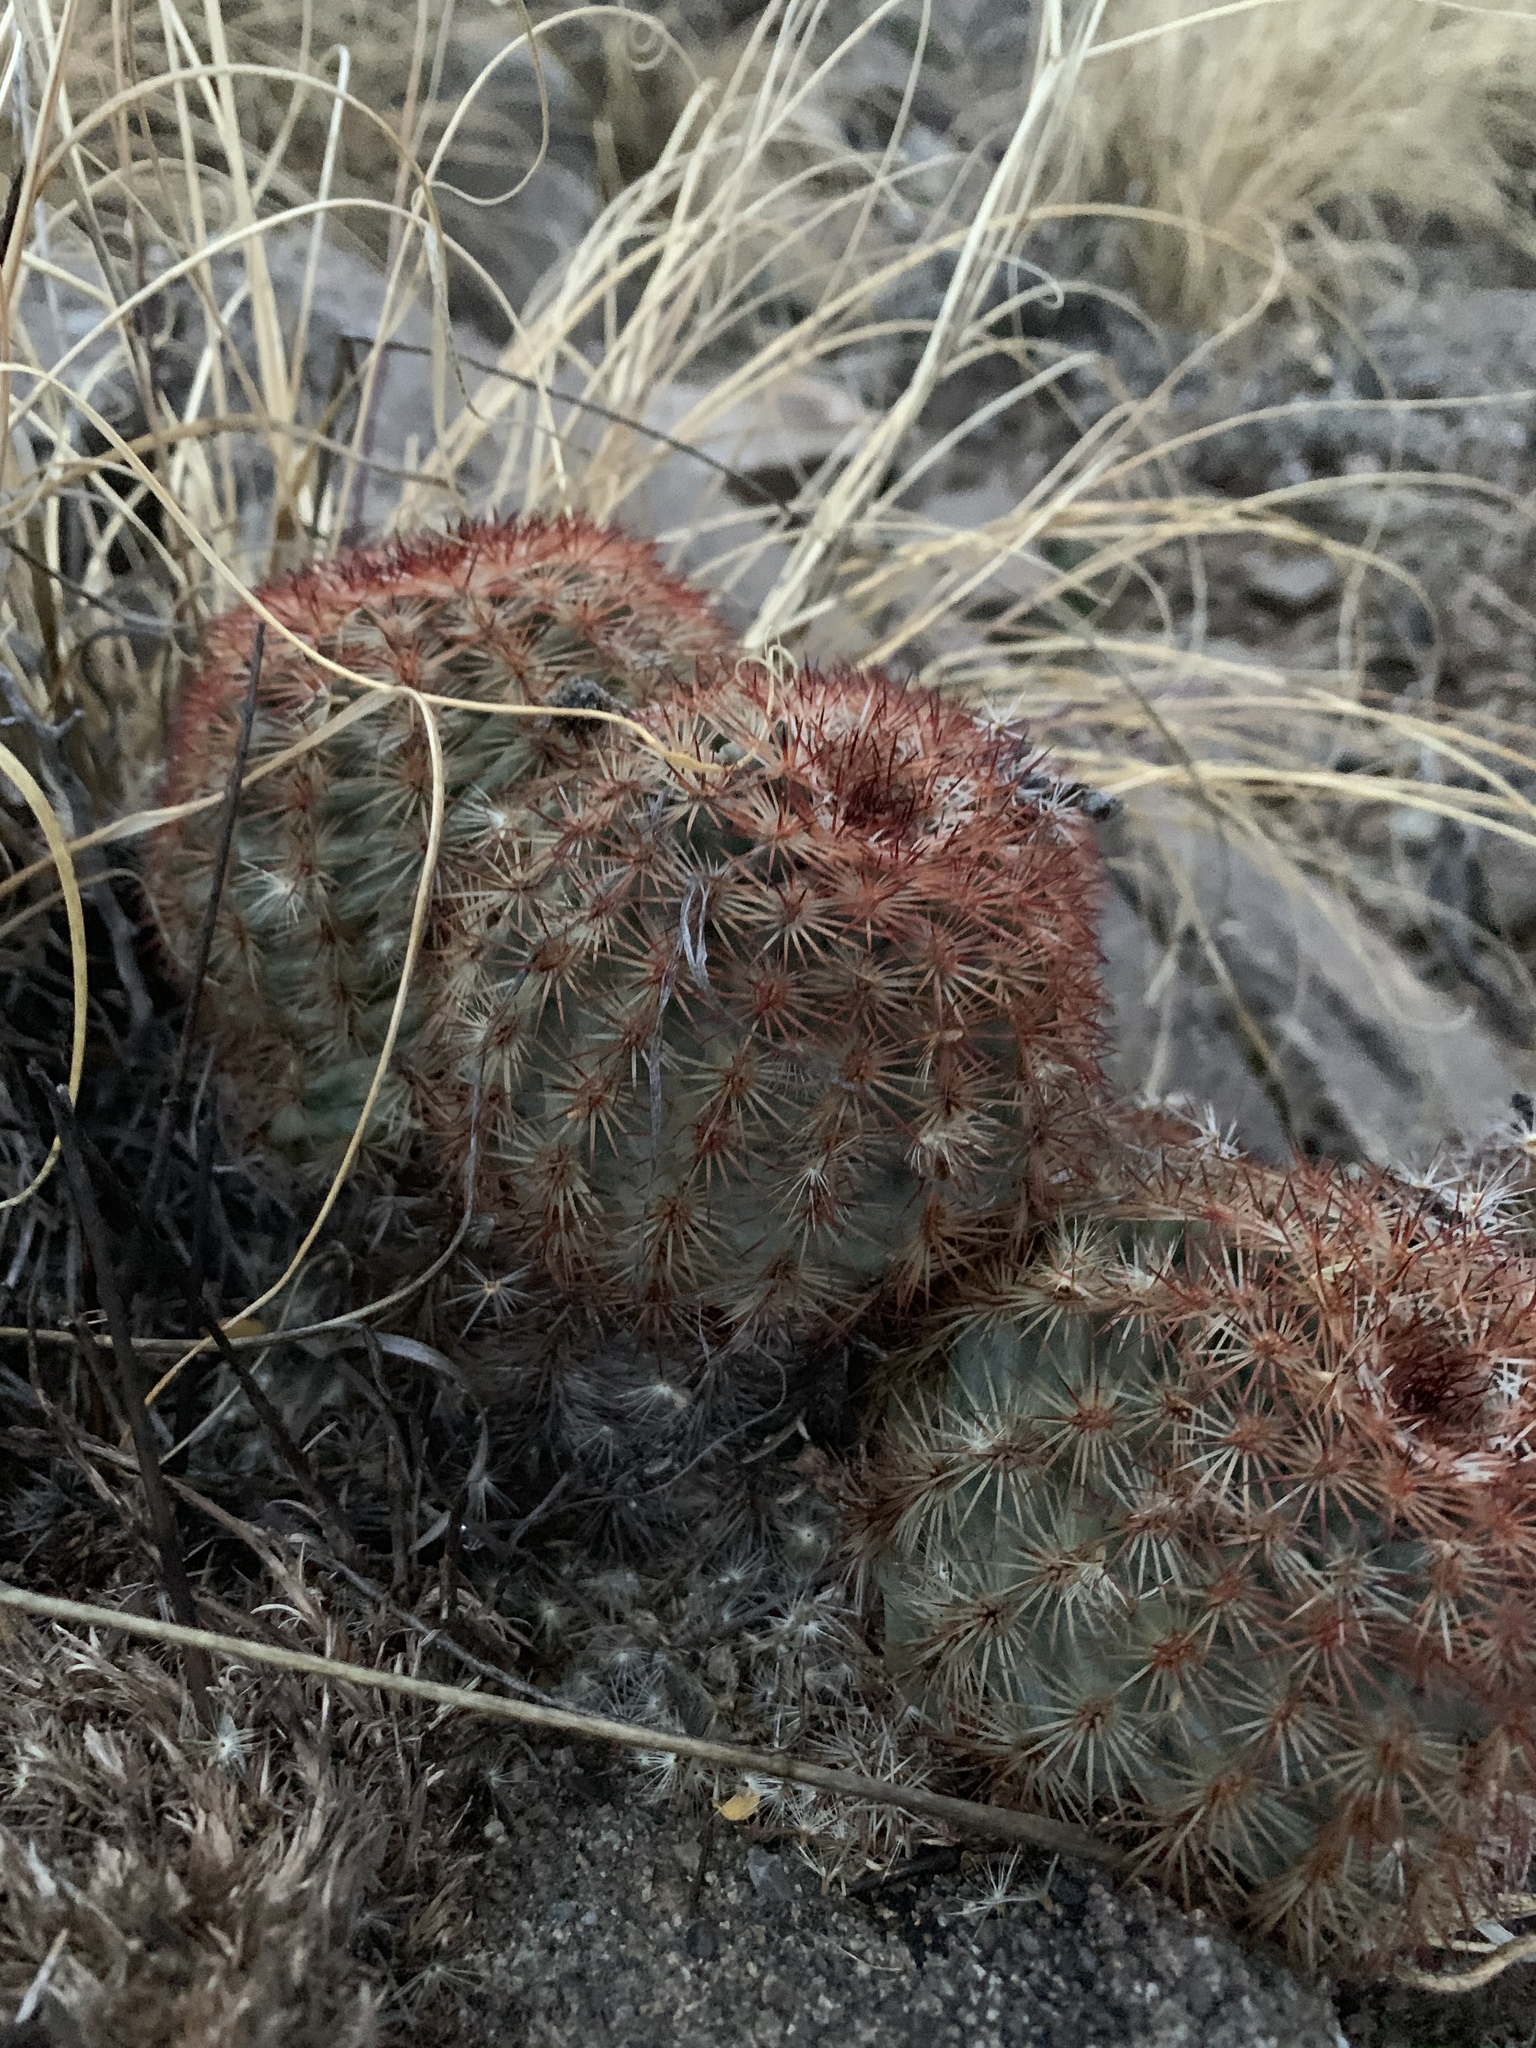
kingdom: Plantae
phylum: Tracheophyta
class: Magnoliopsida
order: Caryophyllales
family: Cactaceae
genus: Echinocereus
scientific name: Echinocereus dasyacanthus
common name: Spiny hedgehog cactus
